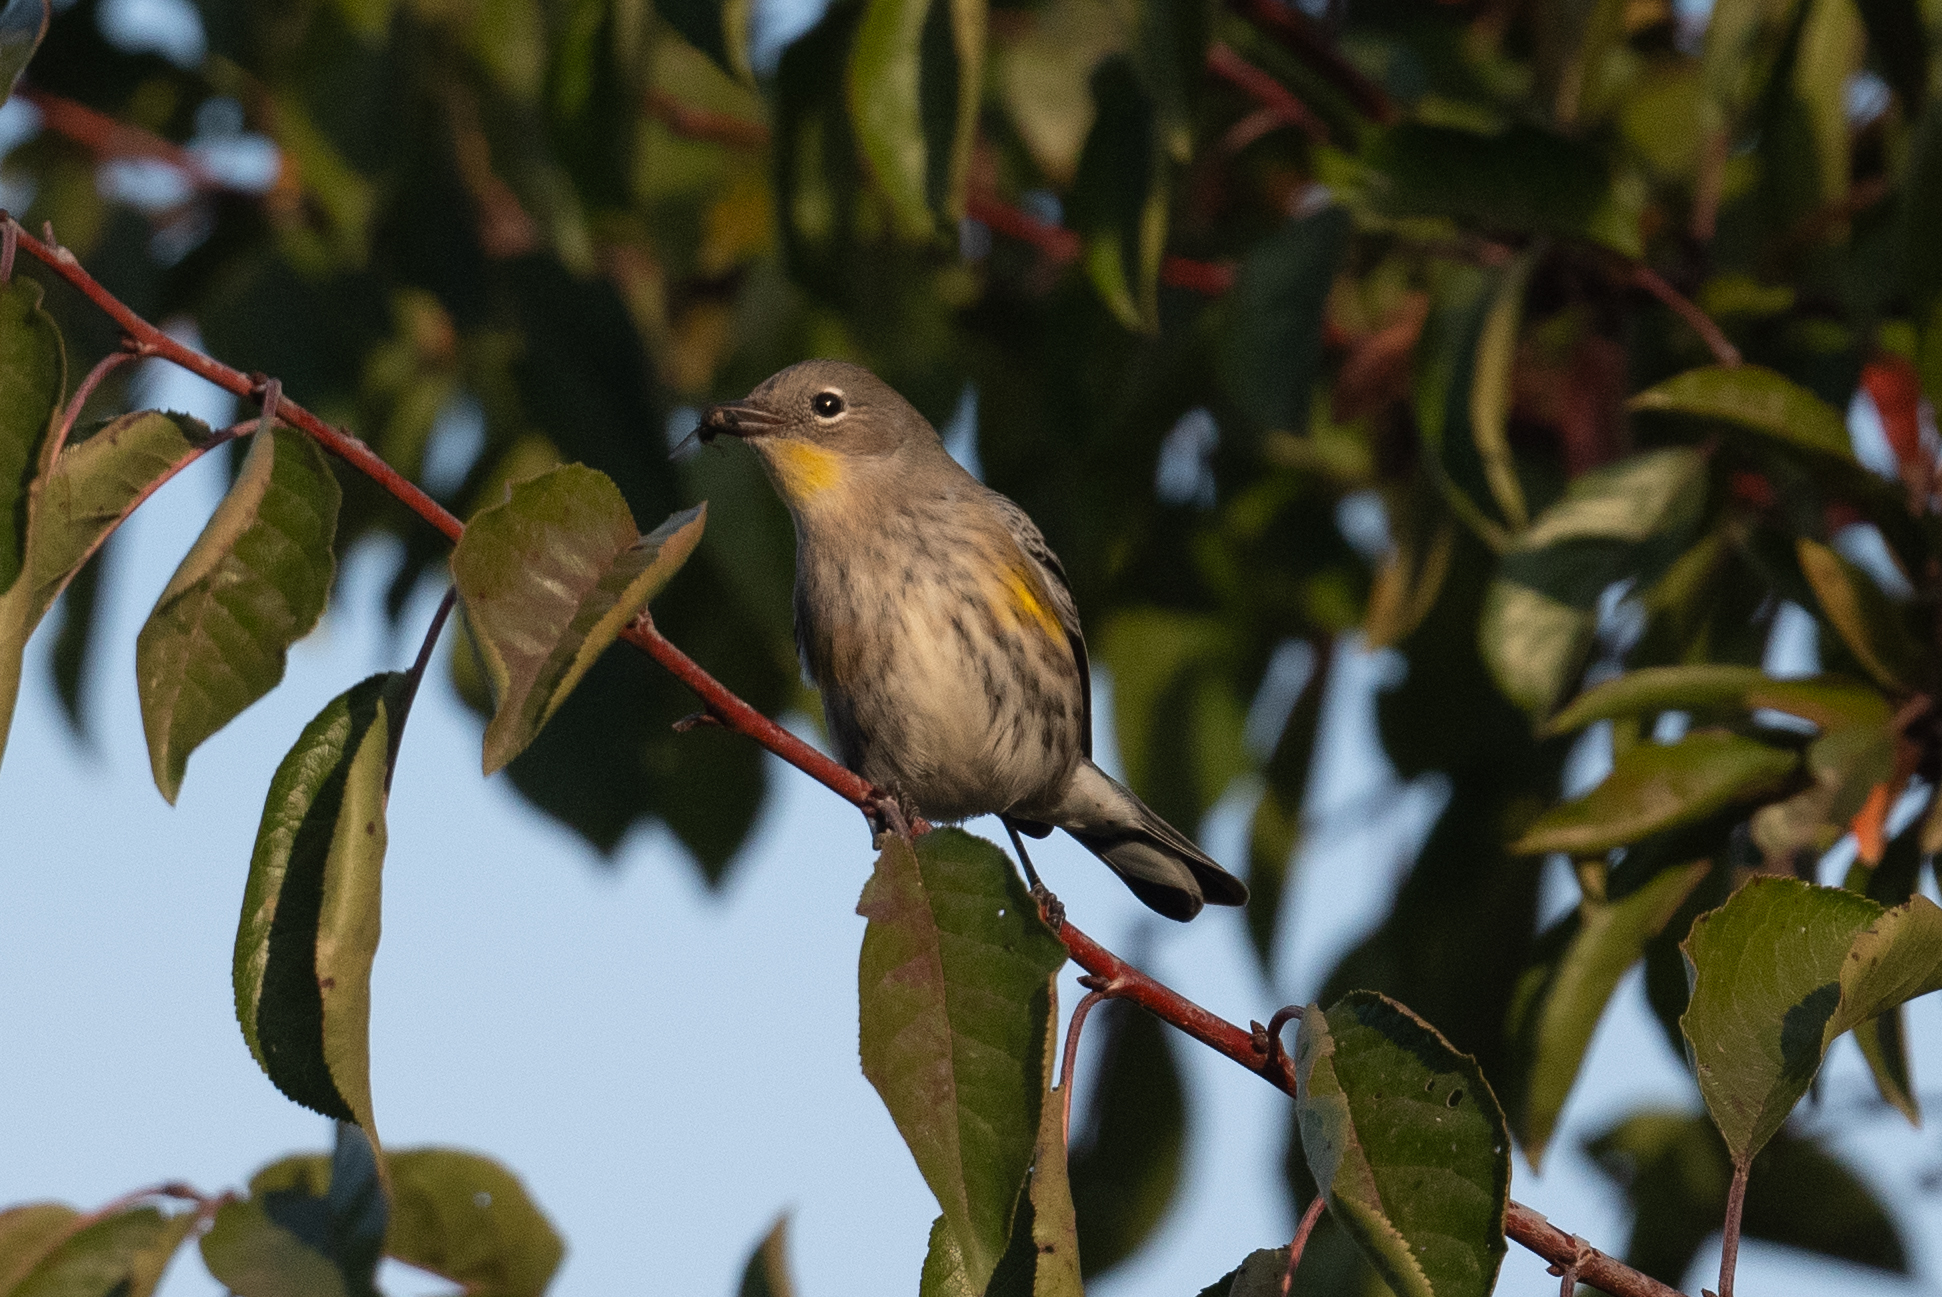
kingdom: Animalia
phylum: Chordata
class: Aves
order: Passeriformes
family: Parulidae
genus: Setophaga
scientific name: Setophaga coronata
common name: Myrtle warbler
